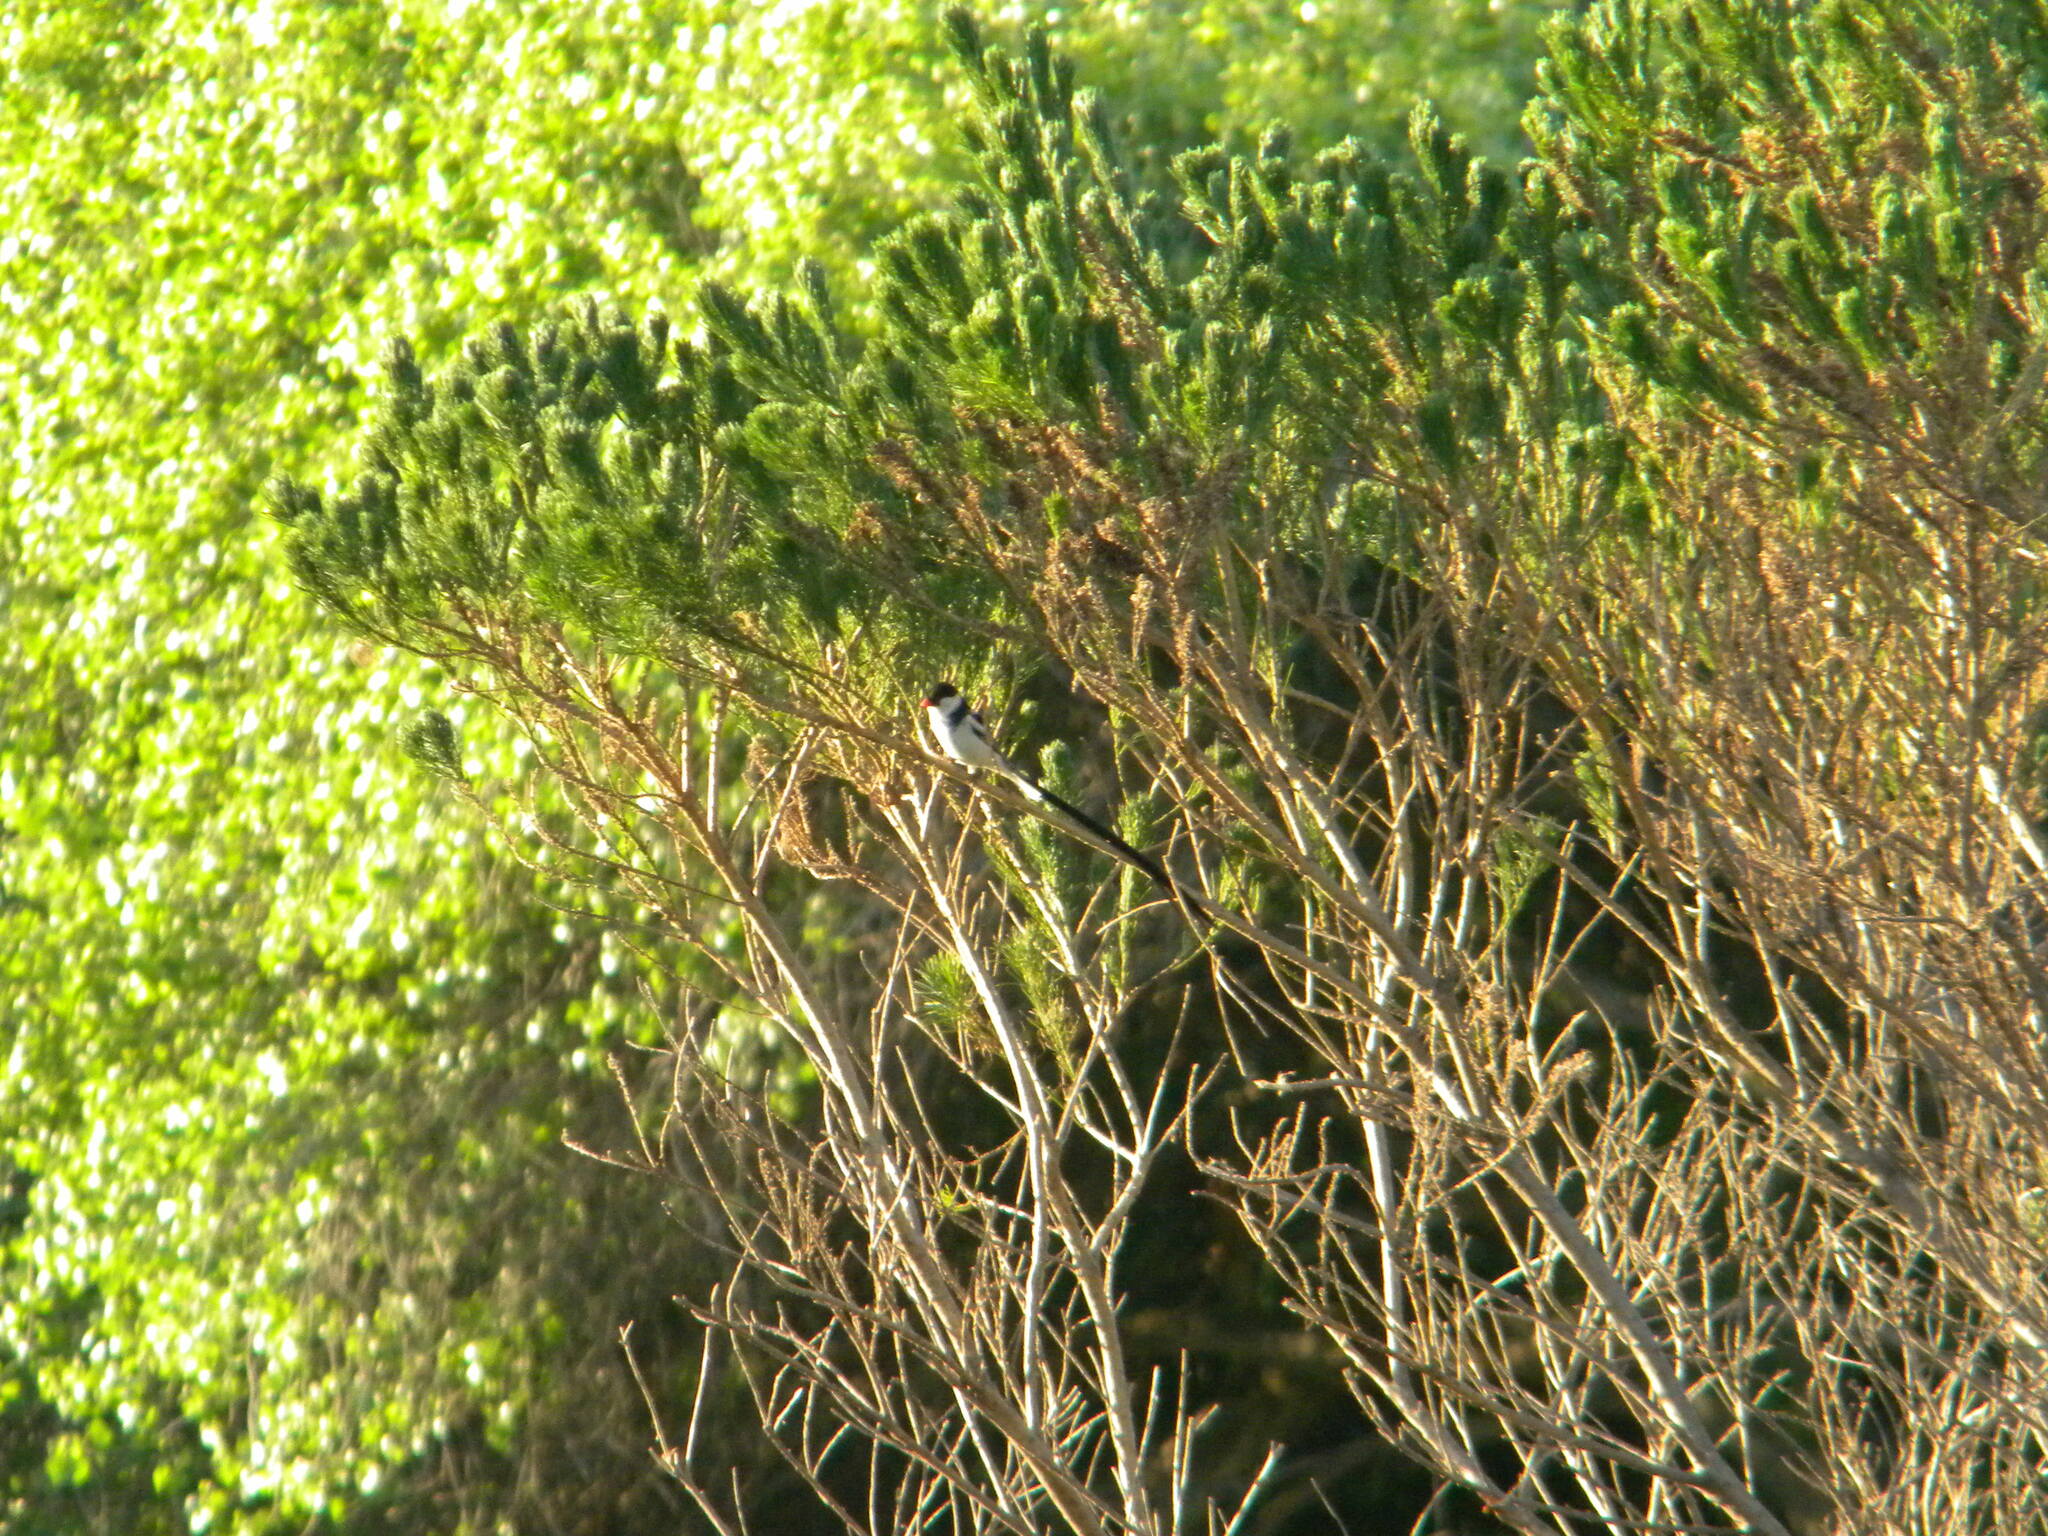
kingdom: Animalia
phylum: Chordata
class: Aves
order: Passeriformes
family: Viduidae
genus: Vidua
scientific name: Vidua macroura
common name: Pin-tailed whydah
